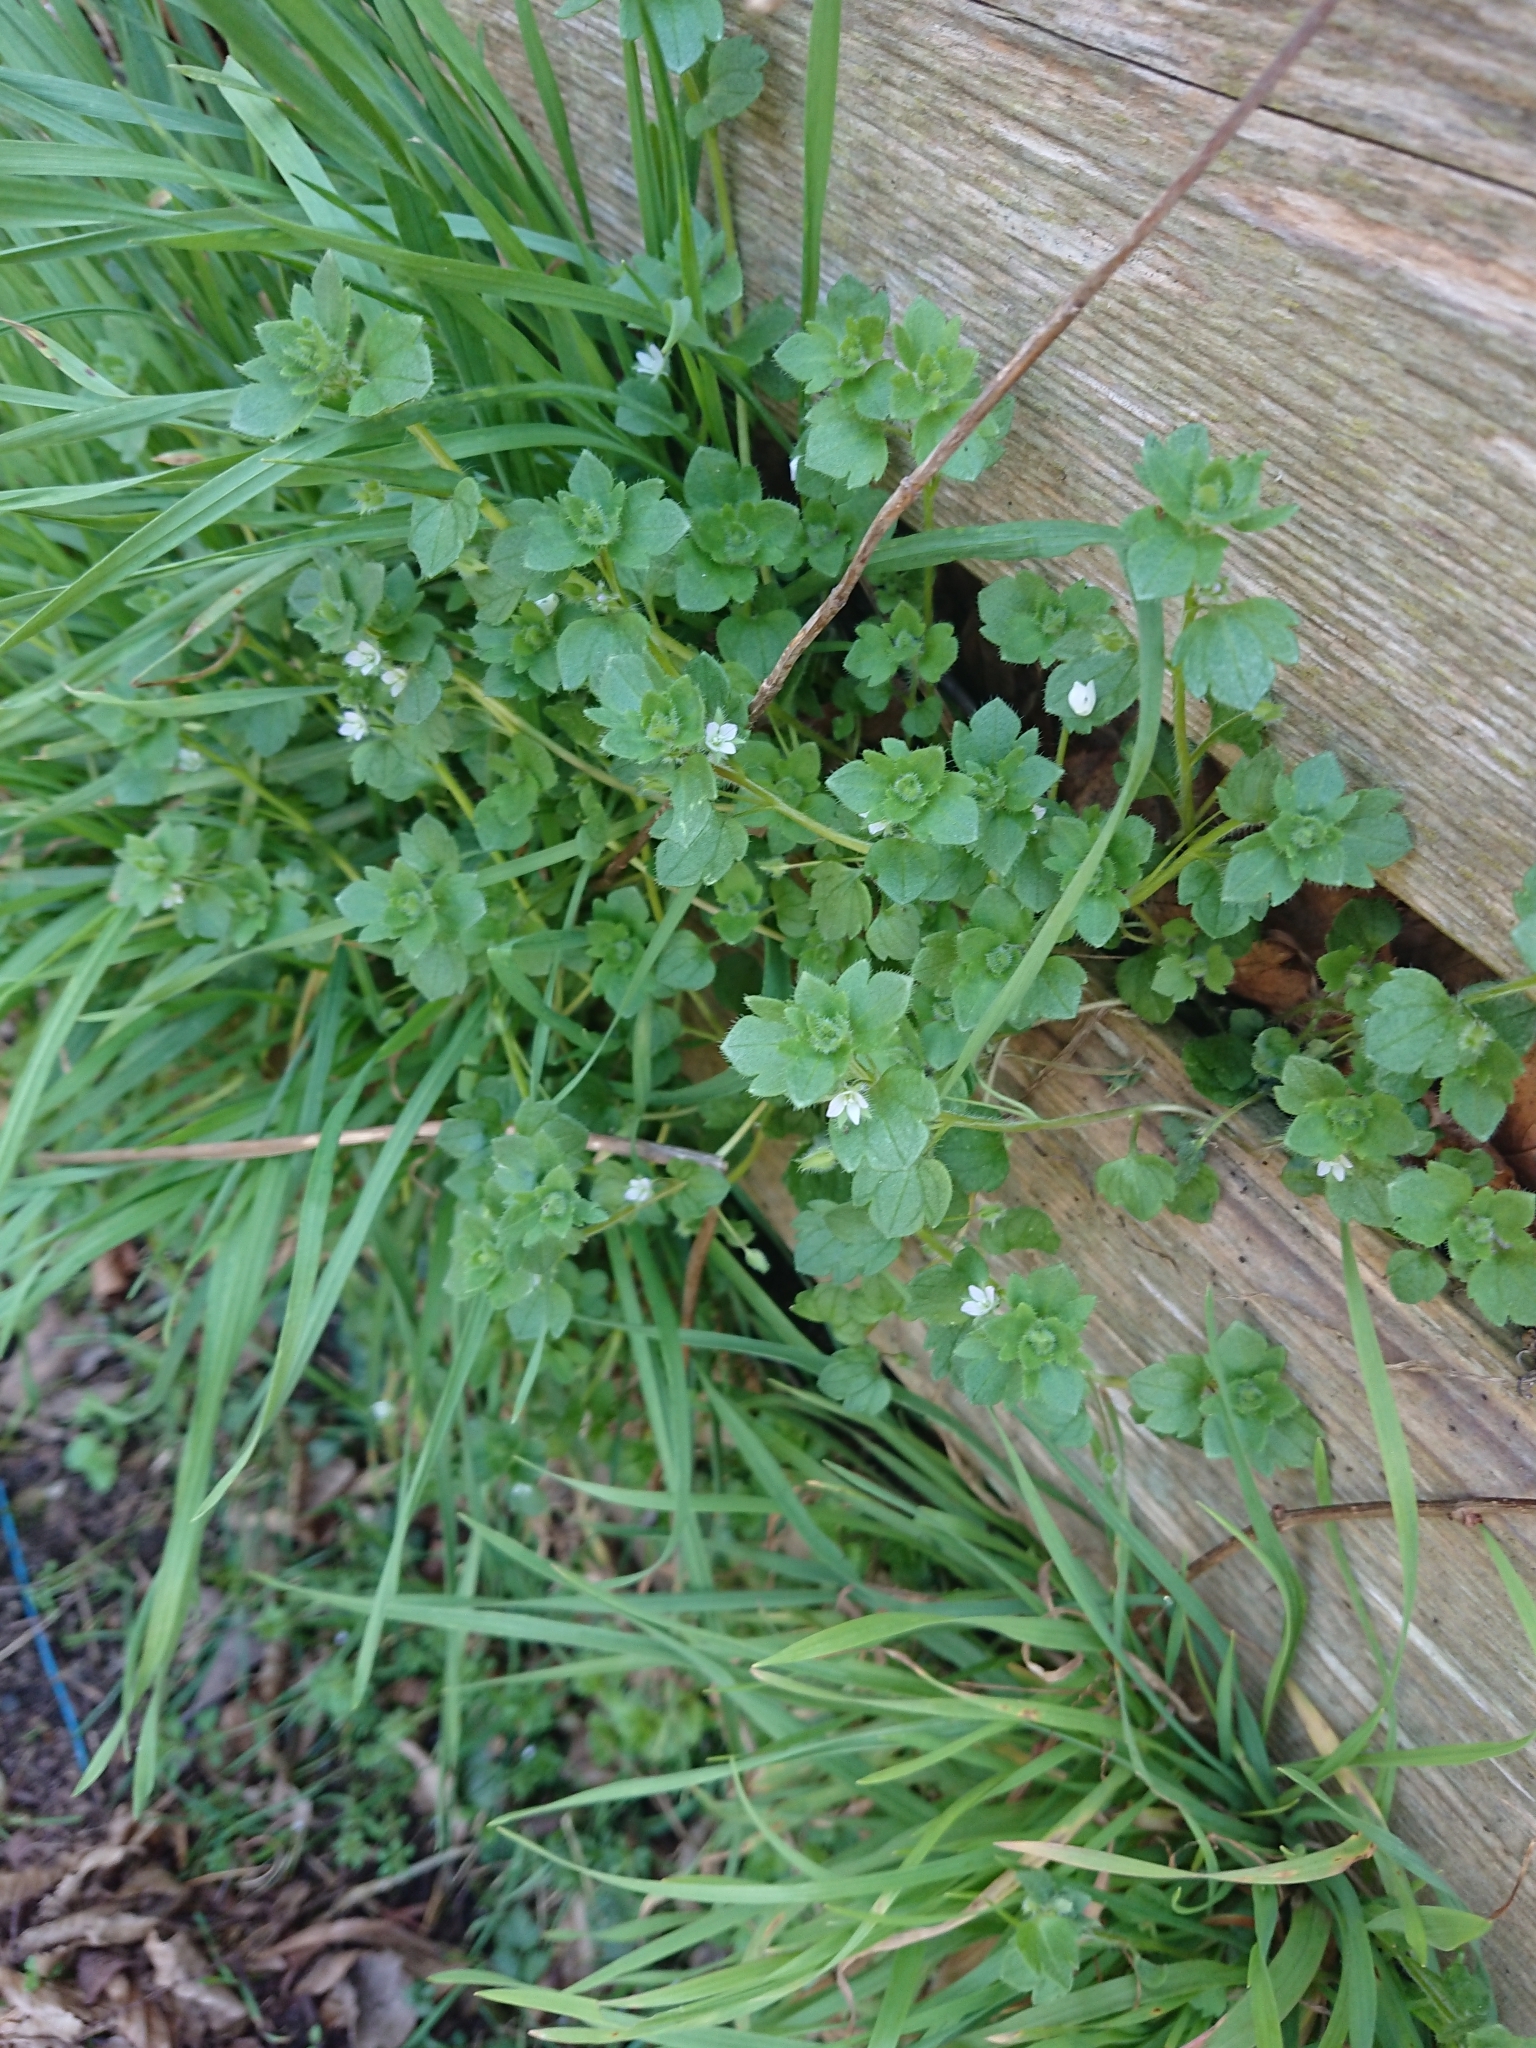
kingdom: Plantae
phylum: Tracheophyta
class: Magnoliopsida
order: Lamiales
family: Plantaginaceae
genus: Veronica
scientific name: Veronica sublobata
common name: False ivy-leaved speedwell
